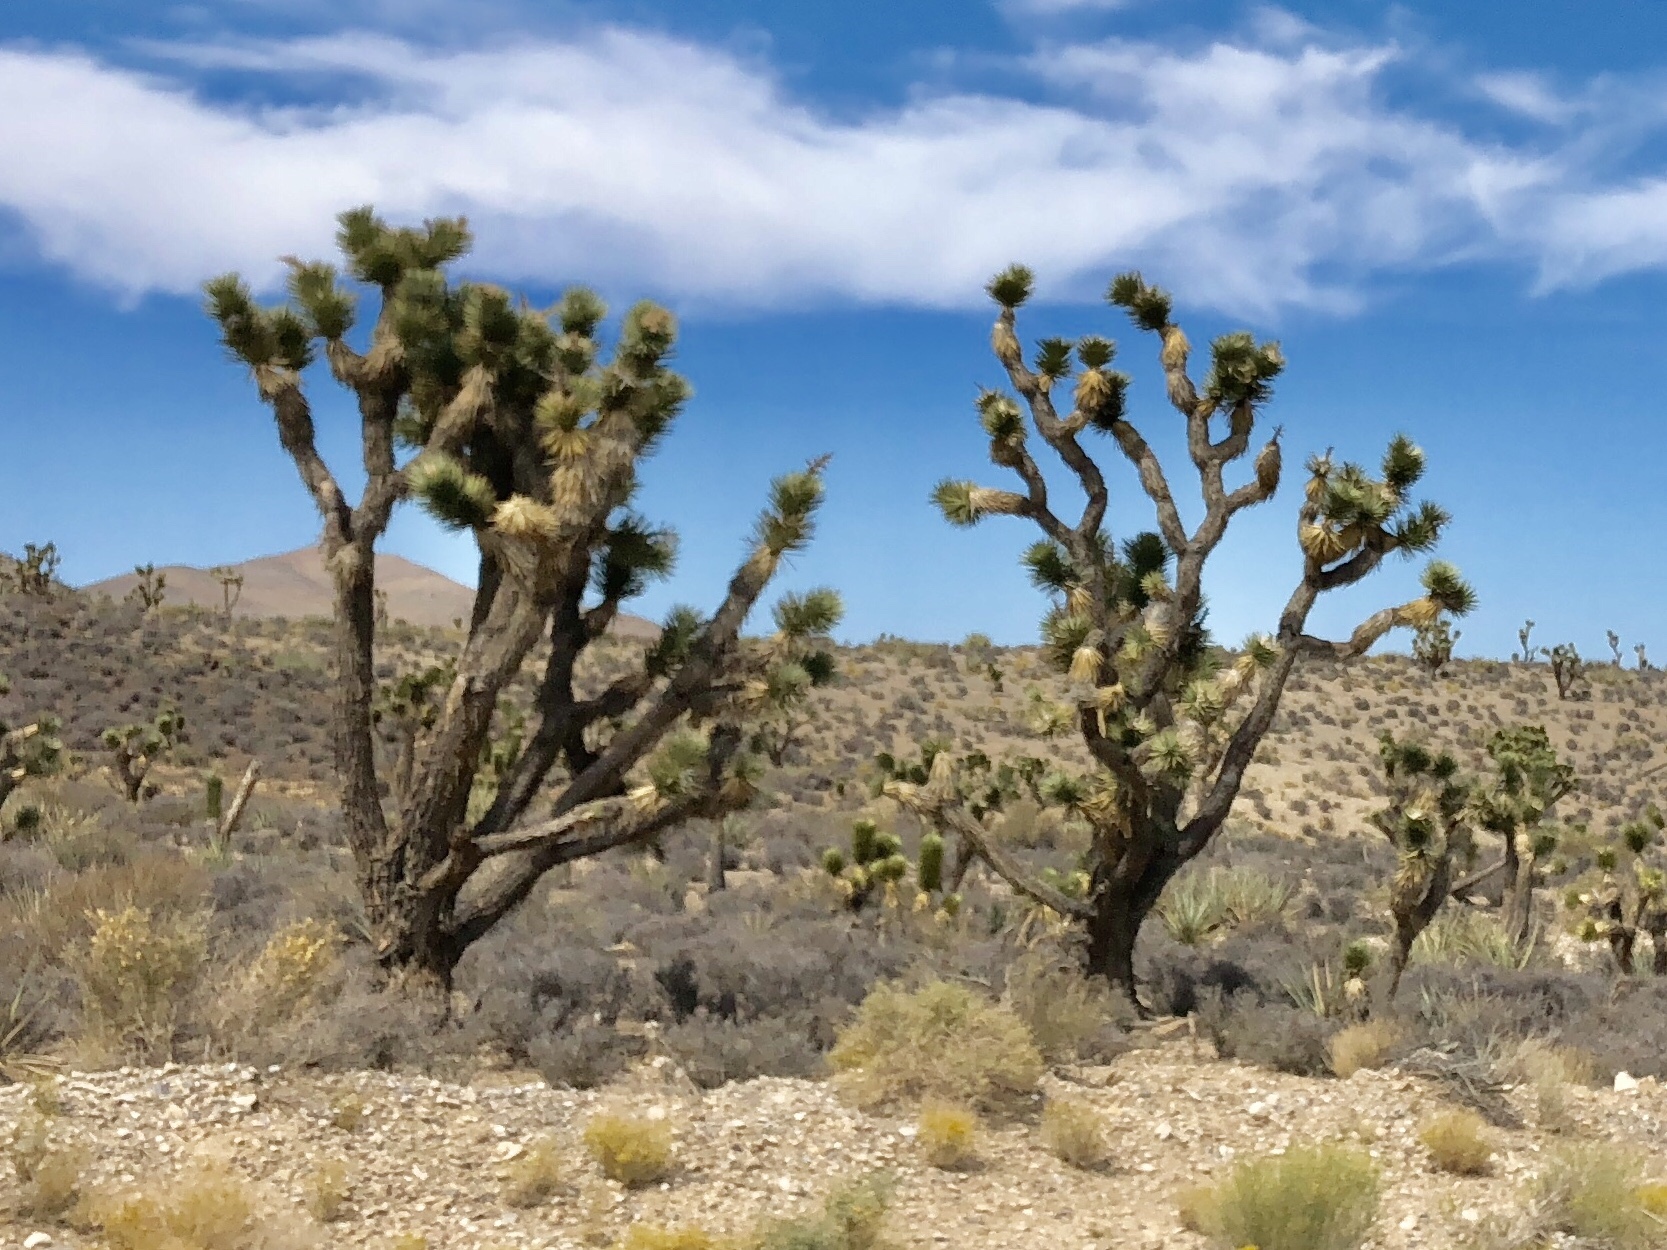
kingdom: Plantae
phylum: Tracheophyta
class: Liliopsida
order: Asparagales
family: Asparagaceae
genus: Yucca
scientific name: Yucca brevifolia
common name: Joshua tree
